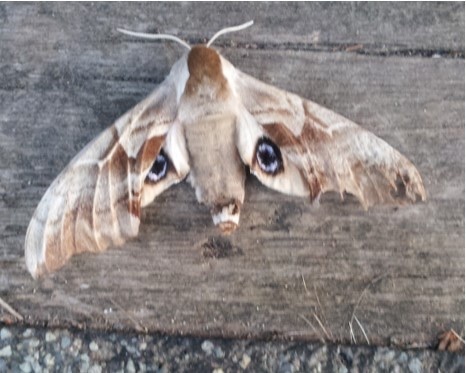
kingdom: Animalia
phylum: Arthropoda
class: Insecta
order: Lepidoptera
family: Sphingidae
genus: Smerinthus
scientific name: Smerinthus cerisyi
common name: Cerisy's sphinx moth
